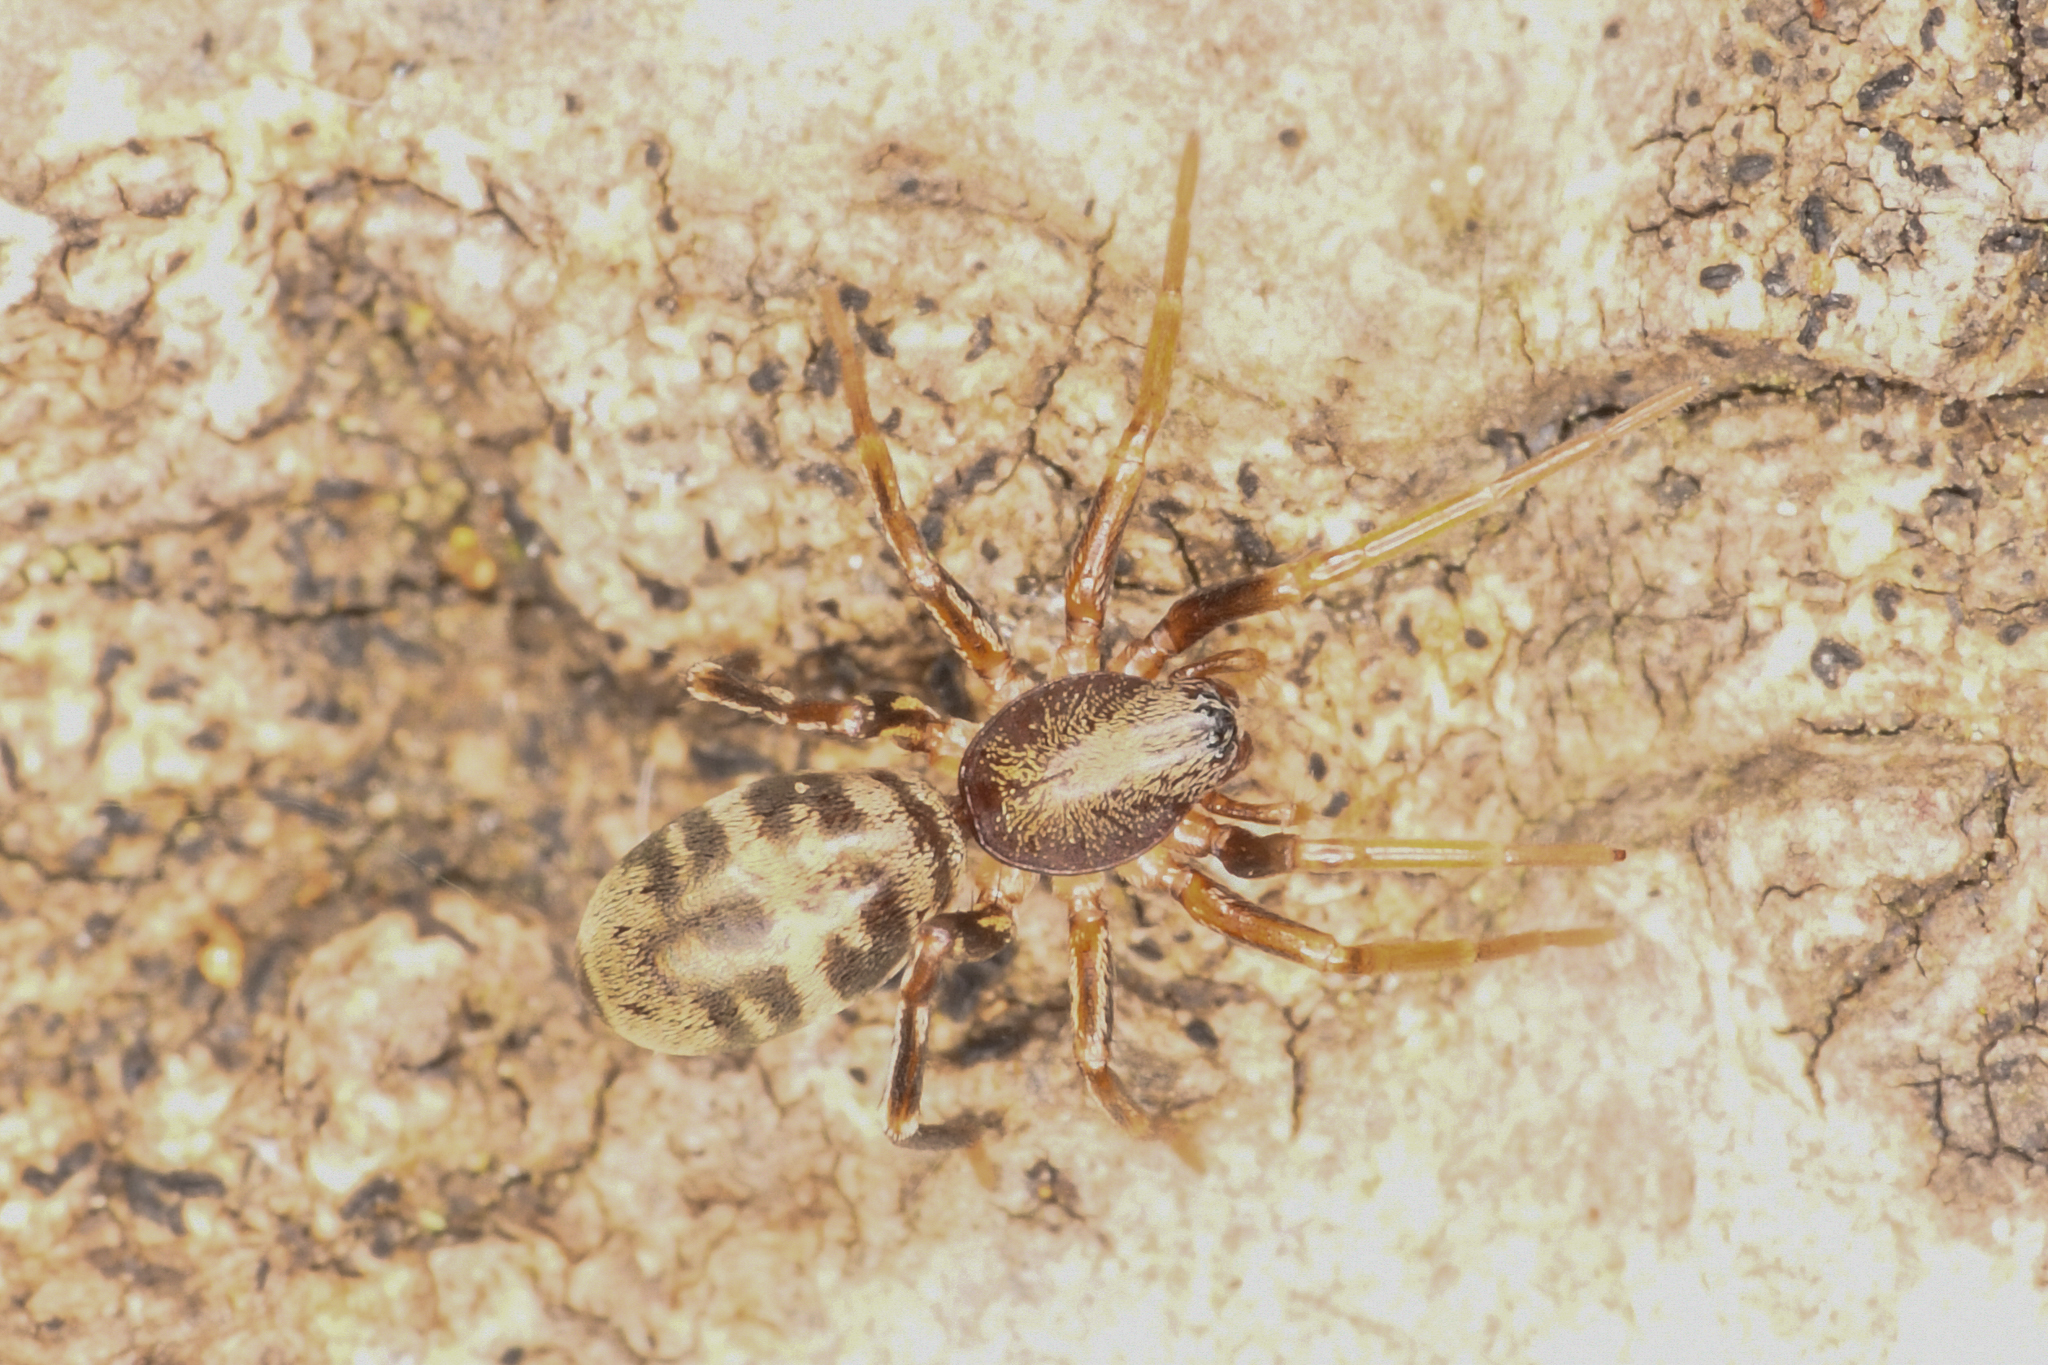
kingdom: Animalia
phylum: Arthropoda
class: Arachnida
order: Araneae
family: Corinnidae
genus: Castianeira
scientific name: Castianeira athena
